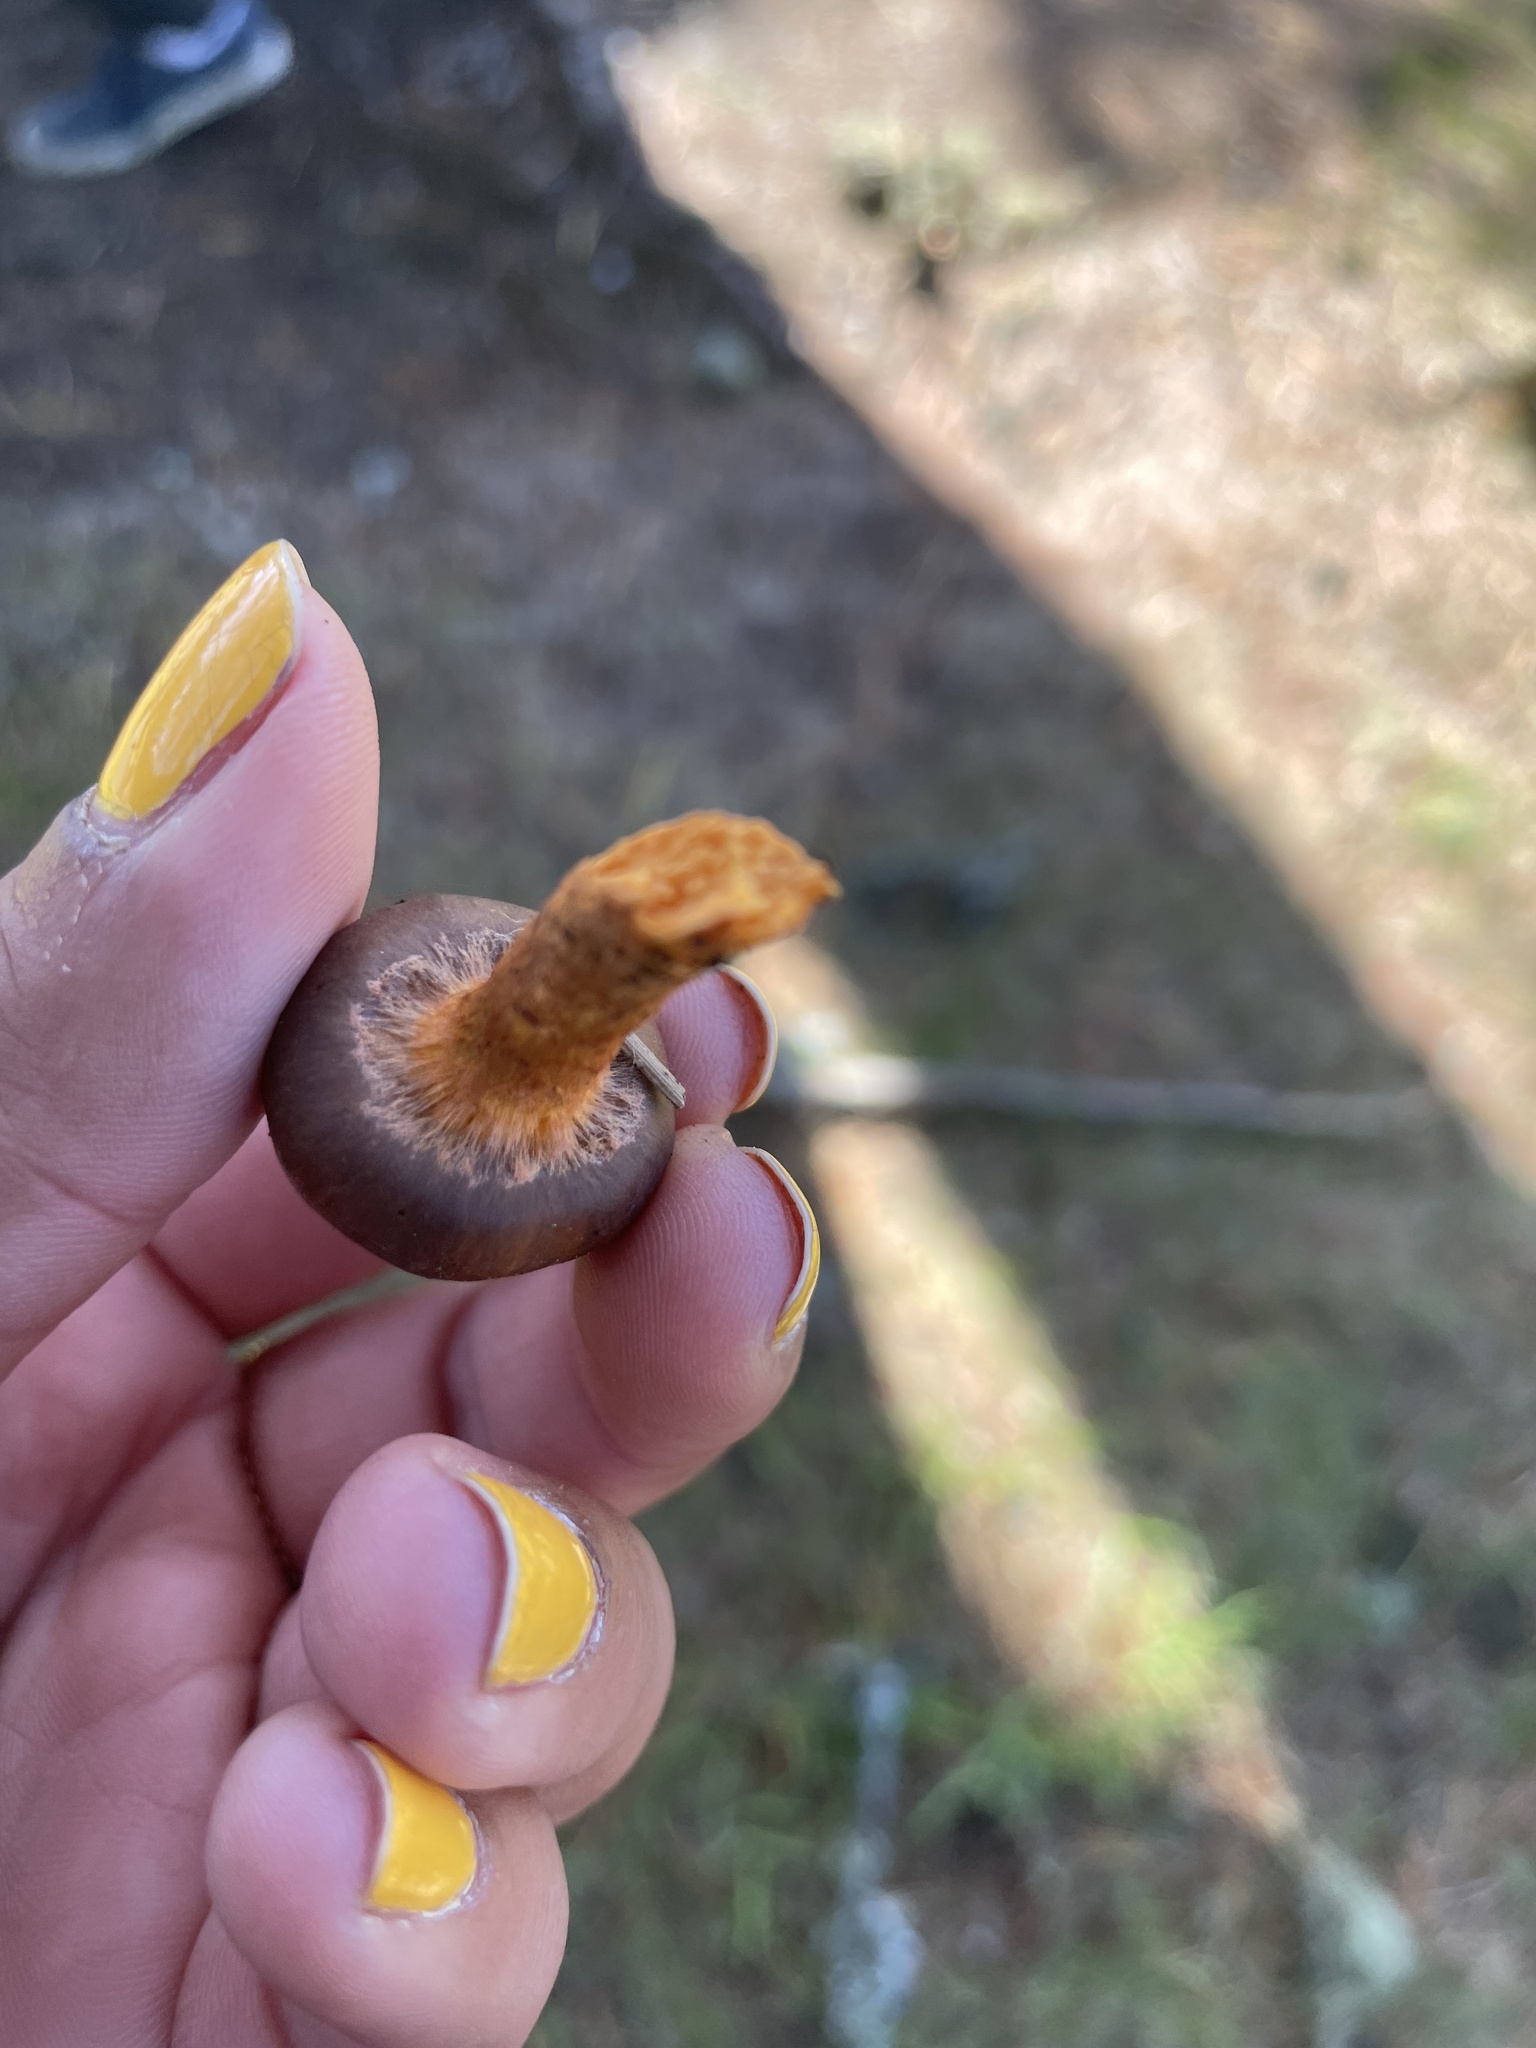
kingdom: Fungi
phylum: Basidiomycota
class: Agaricomycetes
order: Boletales
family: Gomphidiaceae
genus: Chroogomphus
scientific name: Chroogomphus vinicolor
